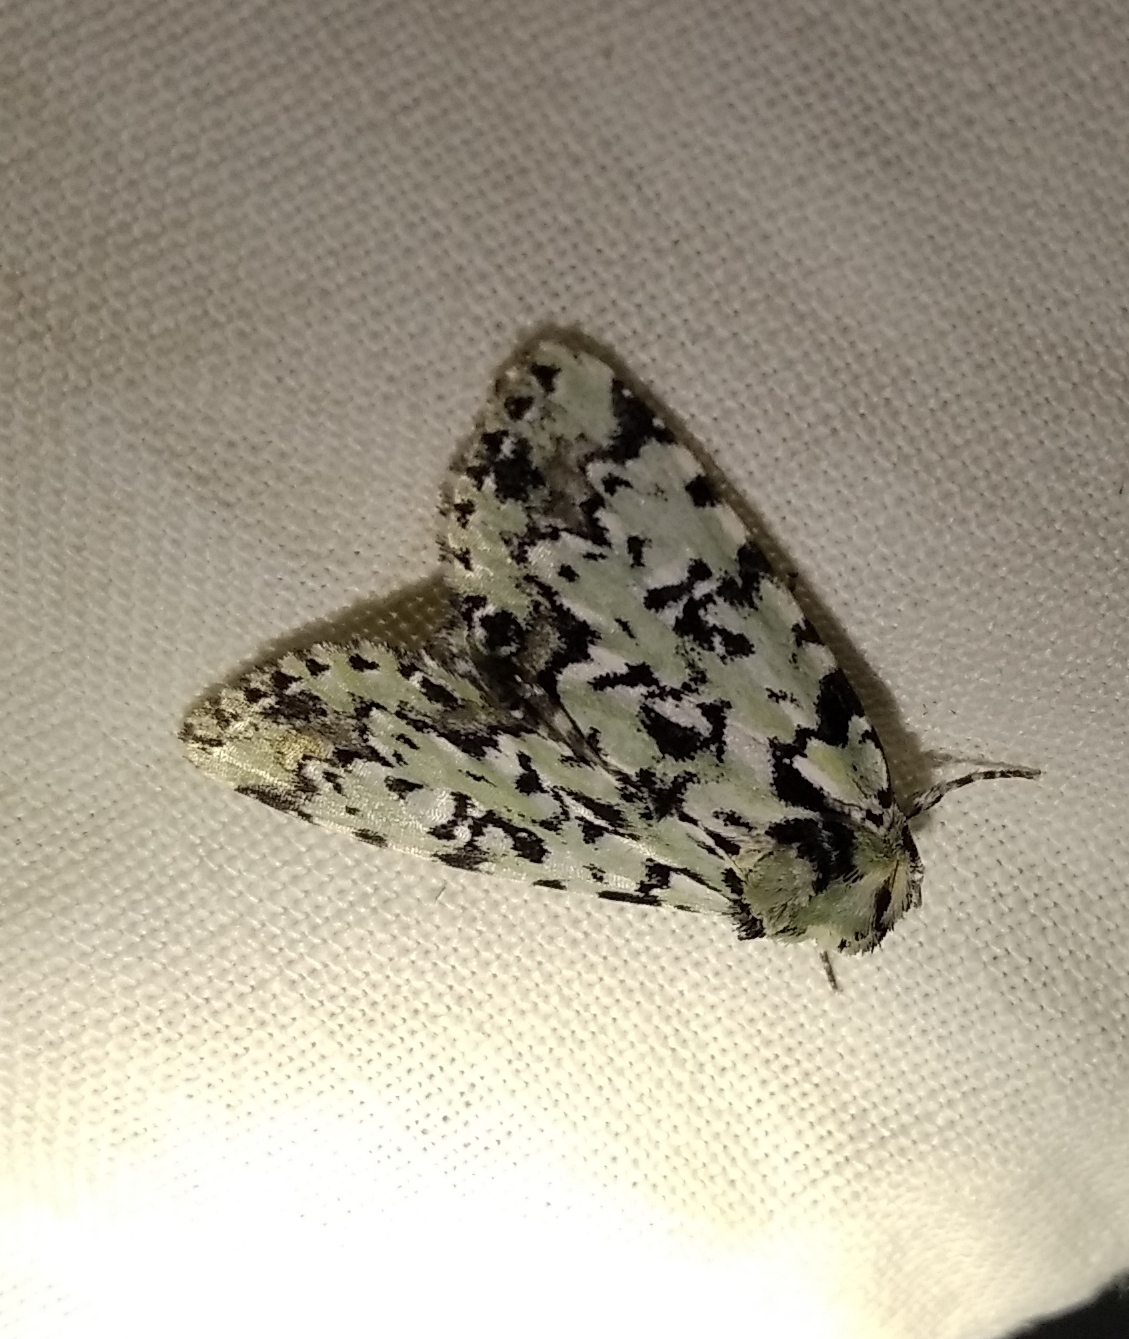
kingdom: Animalia
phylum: Arthropoda
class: Insecta
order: Lepidoptera
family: Noctuidae
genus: Moma
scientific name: Moma alpium
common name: Scarce merveille du jour
